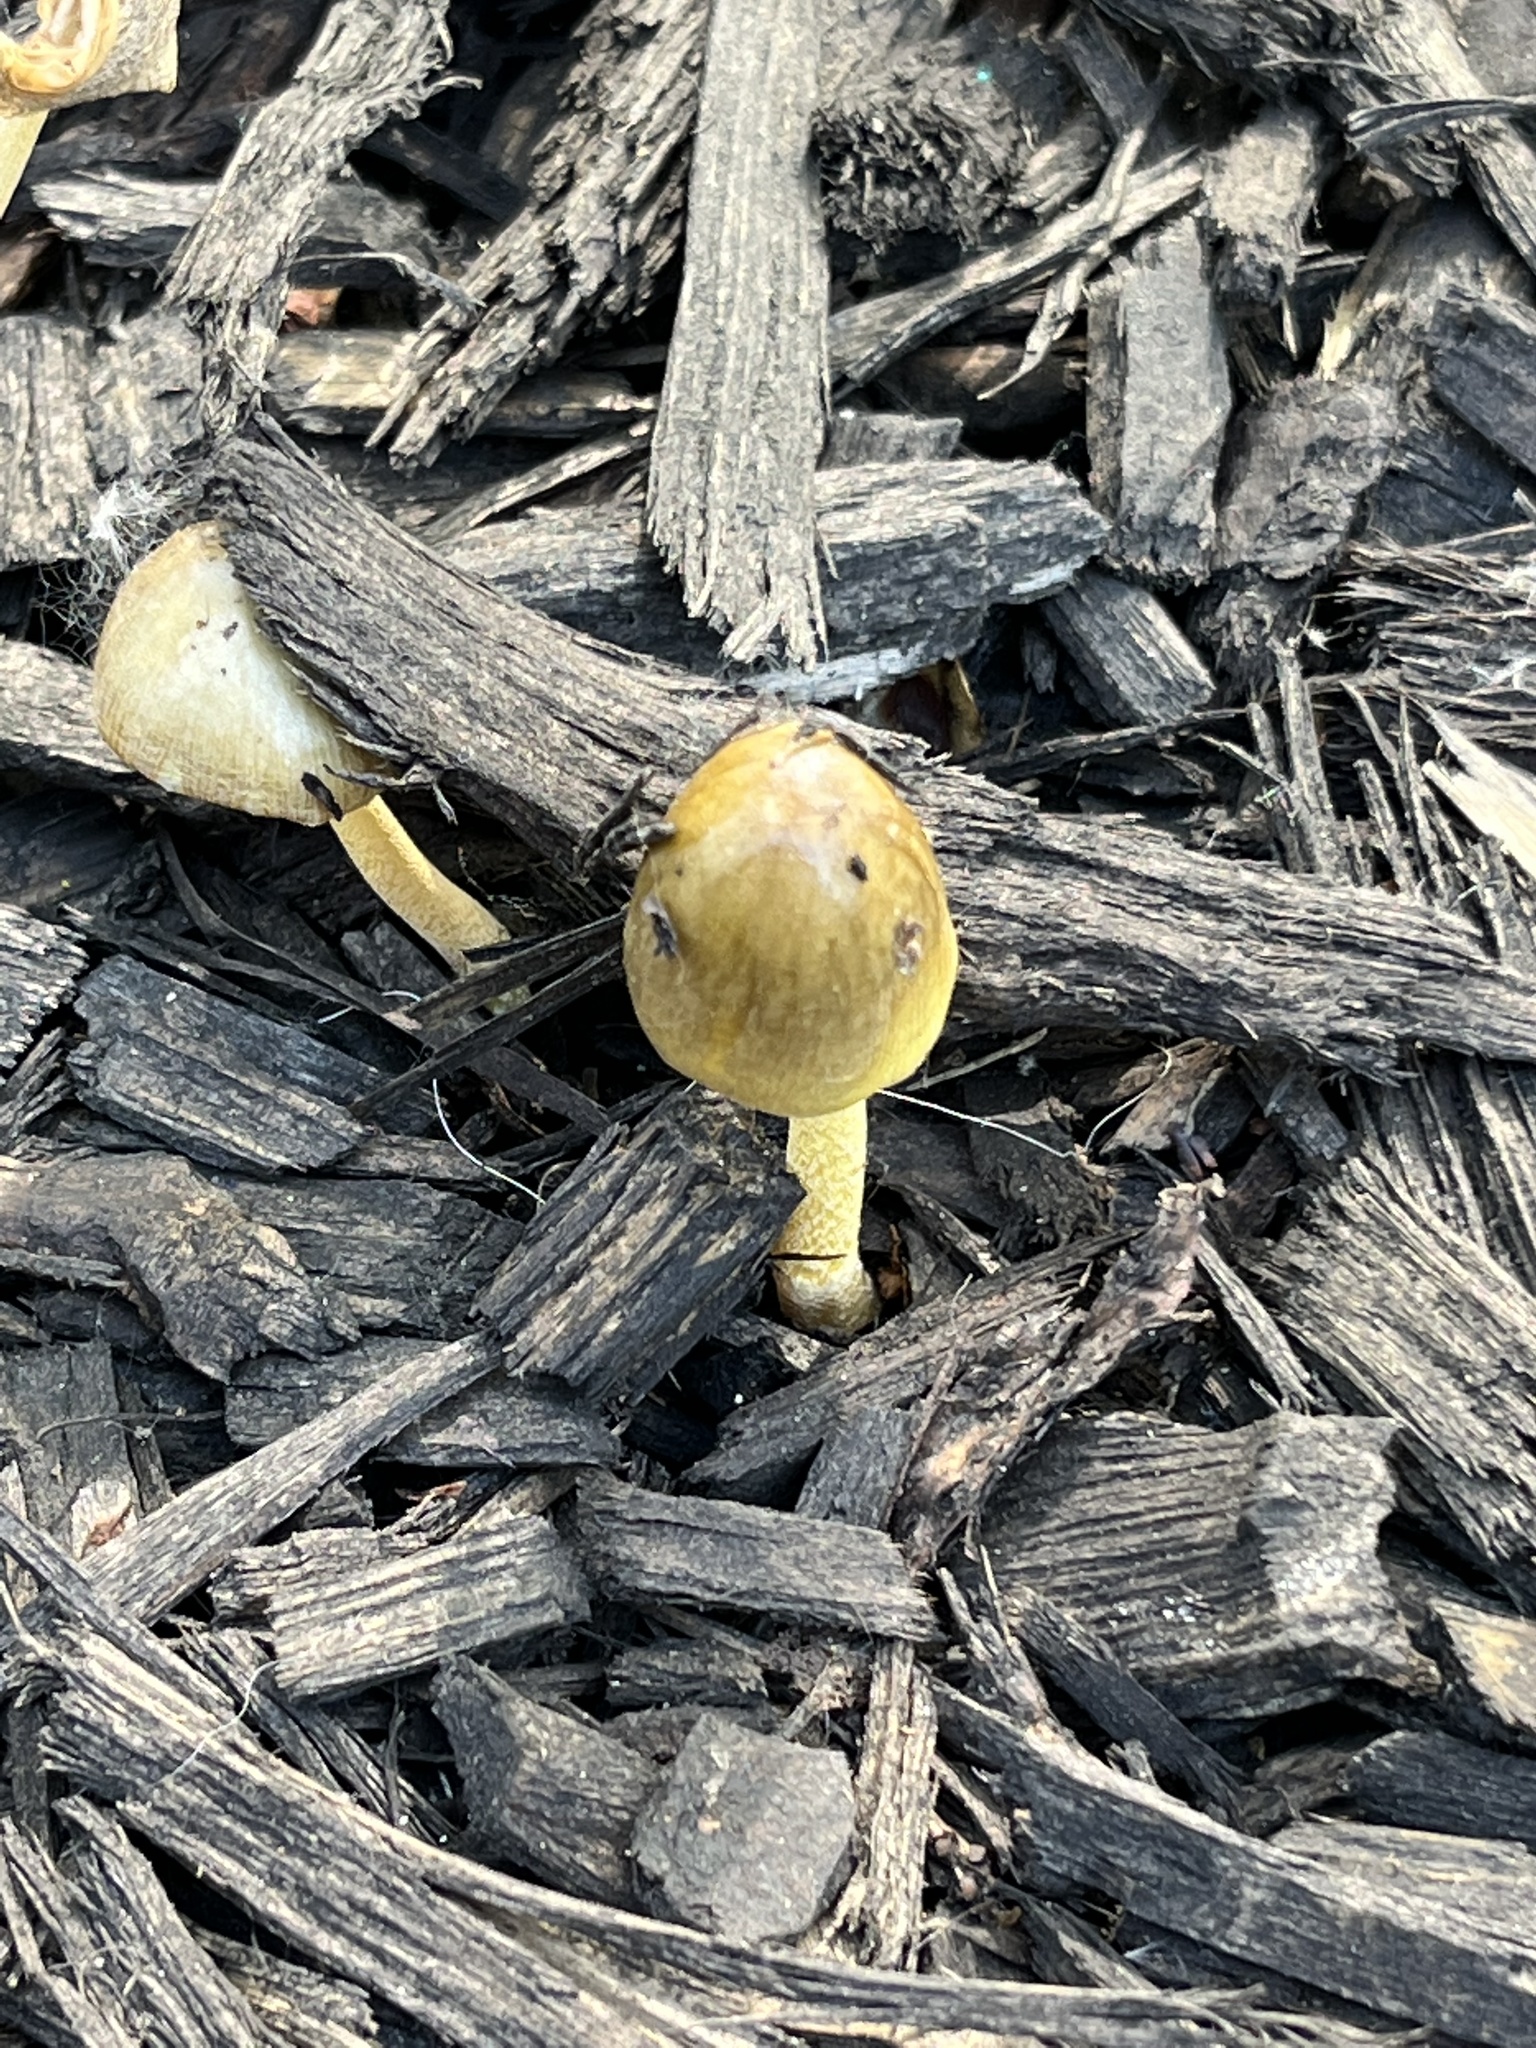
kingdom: Fungi
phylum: Basidiomycota
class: Agaricomycetes
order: Agaricales
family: Bolbitiaceae
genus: Bolbitius
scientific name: Bolbitius titubans
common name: Yellow fieldcap
